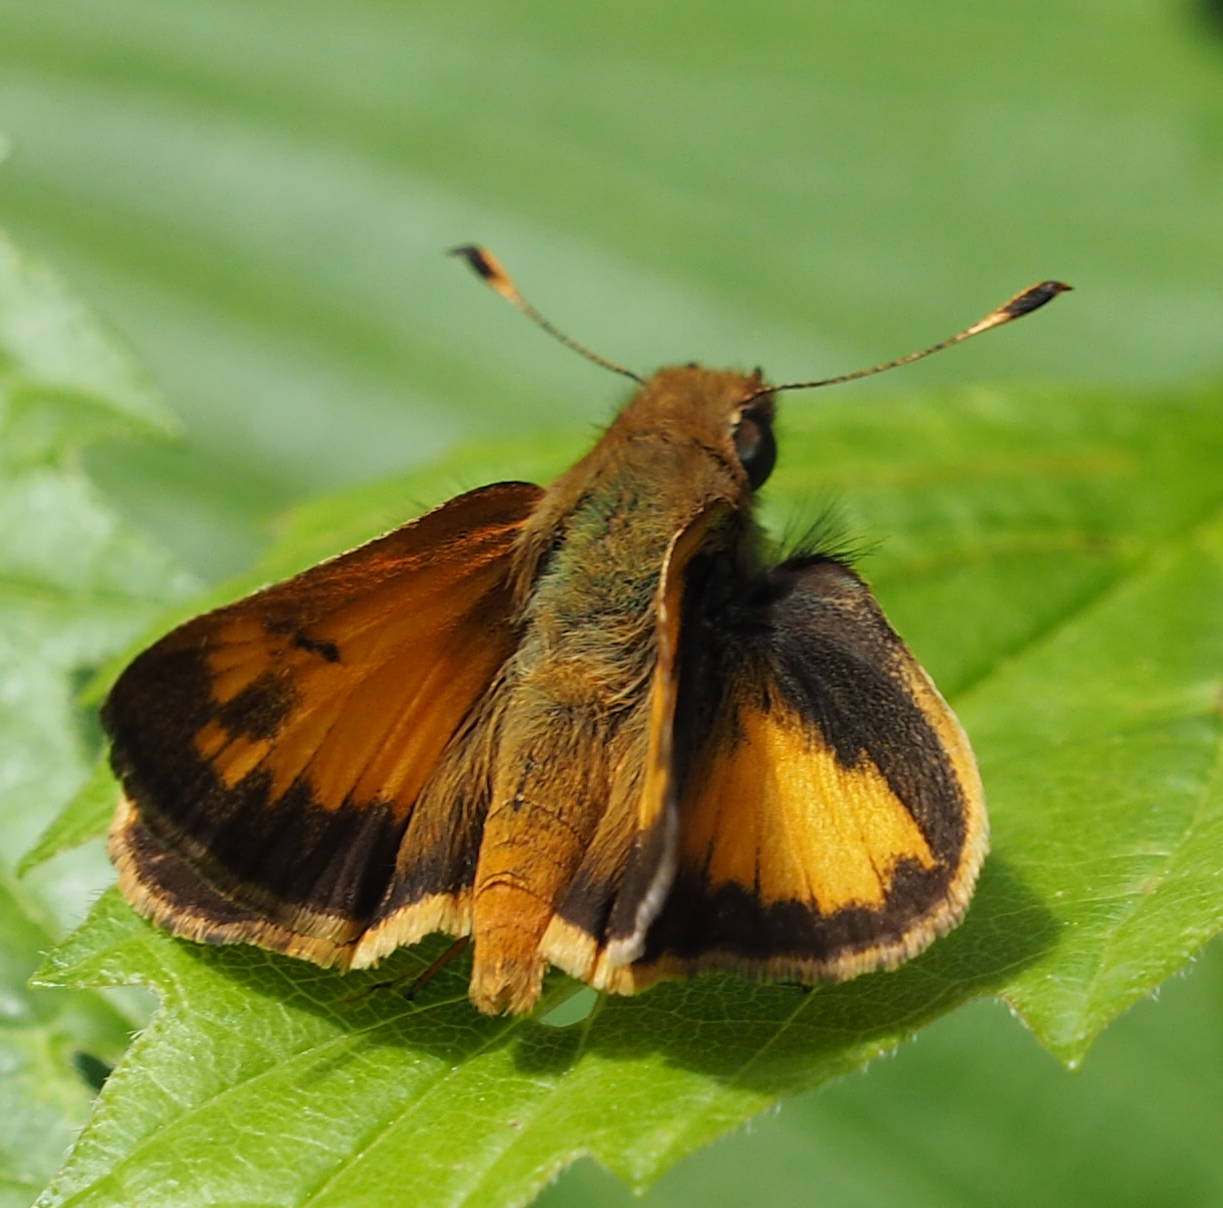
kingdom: Animalia
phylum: Arthropoda
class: Insecta
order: Lepidoptera
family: Hesperiidae
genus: Lon
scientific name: Lon zabulon
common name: Zabulon skipper
